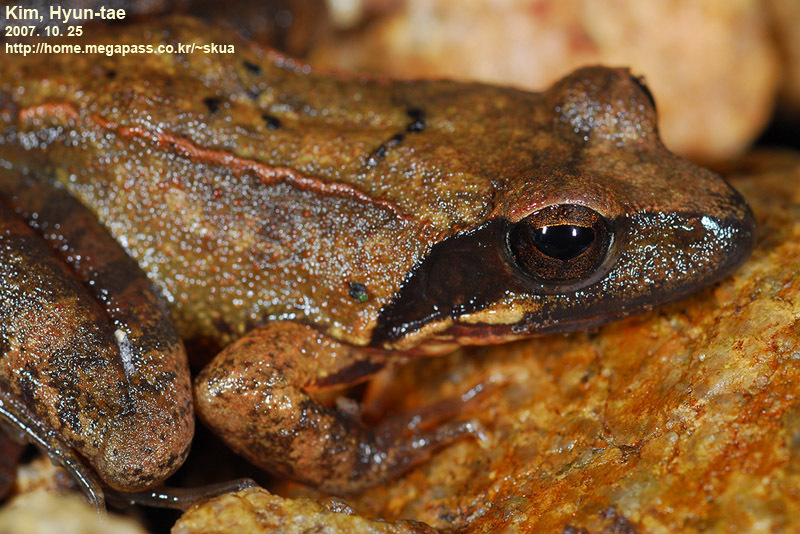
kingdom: Animalia
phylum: Chordata
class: Amphibia
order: Anura
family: Ranidae
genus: Rana
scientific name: Rana uenoi
